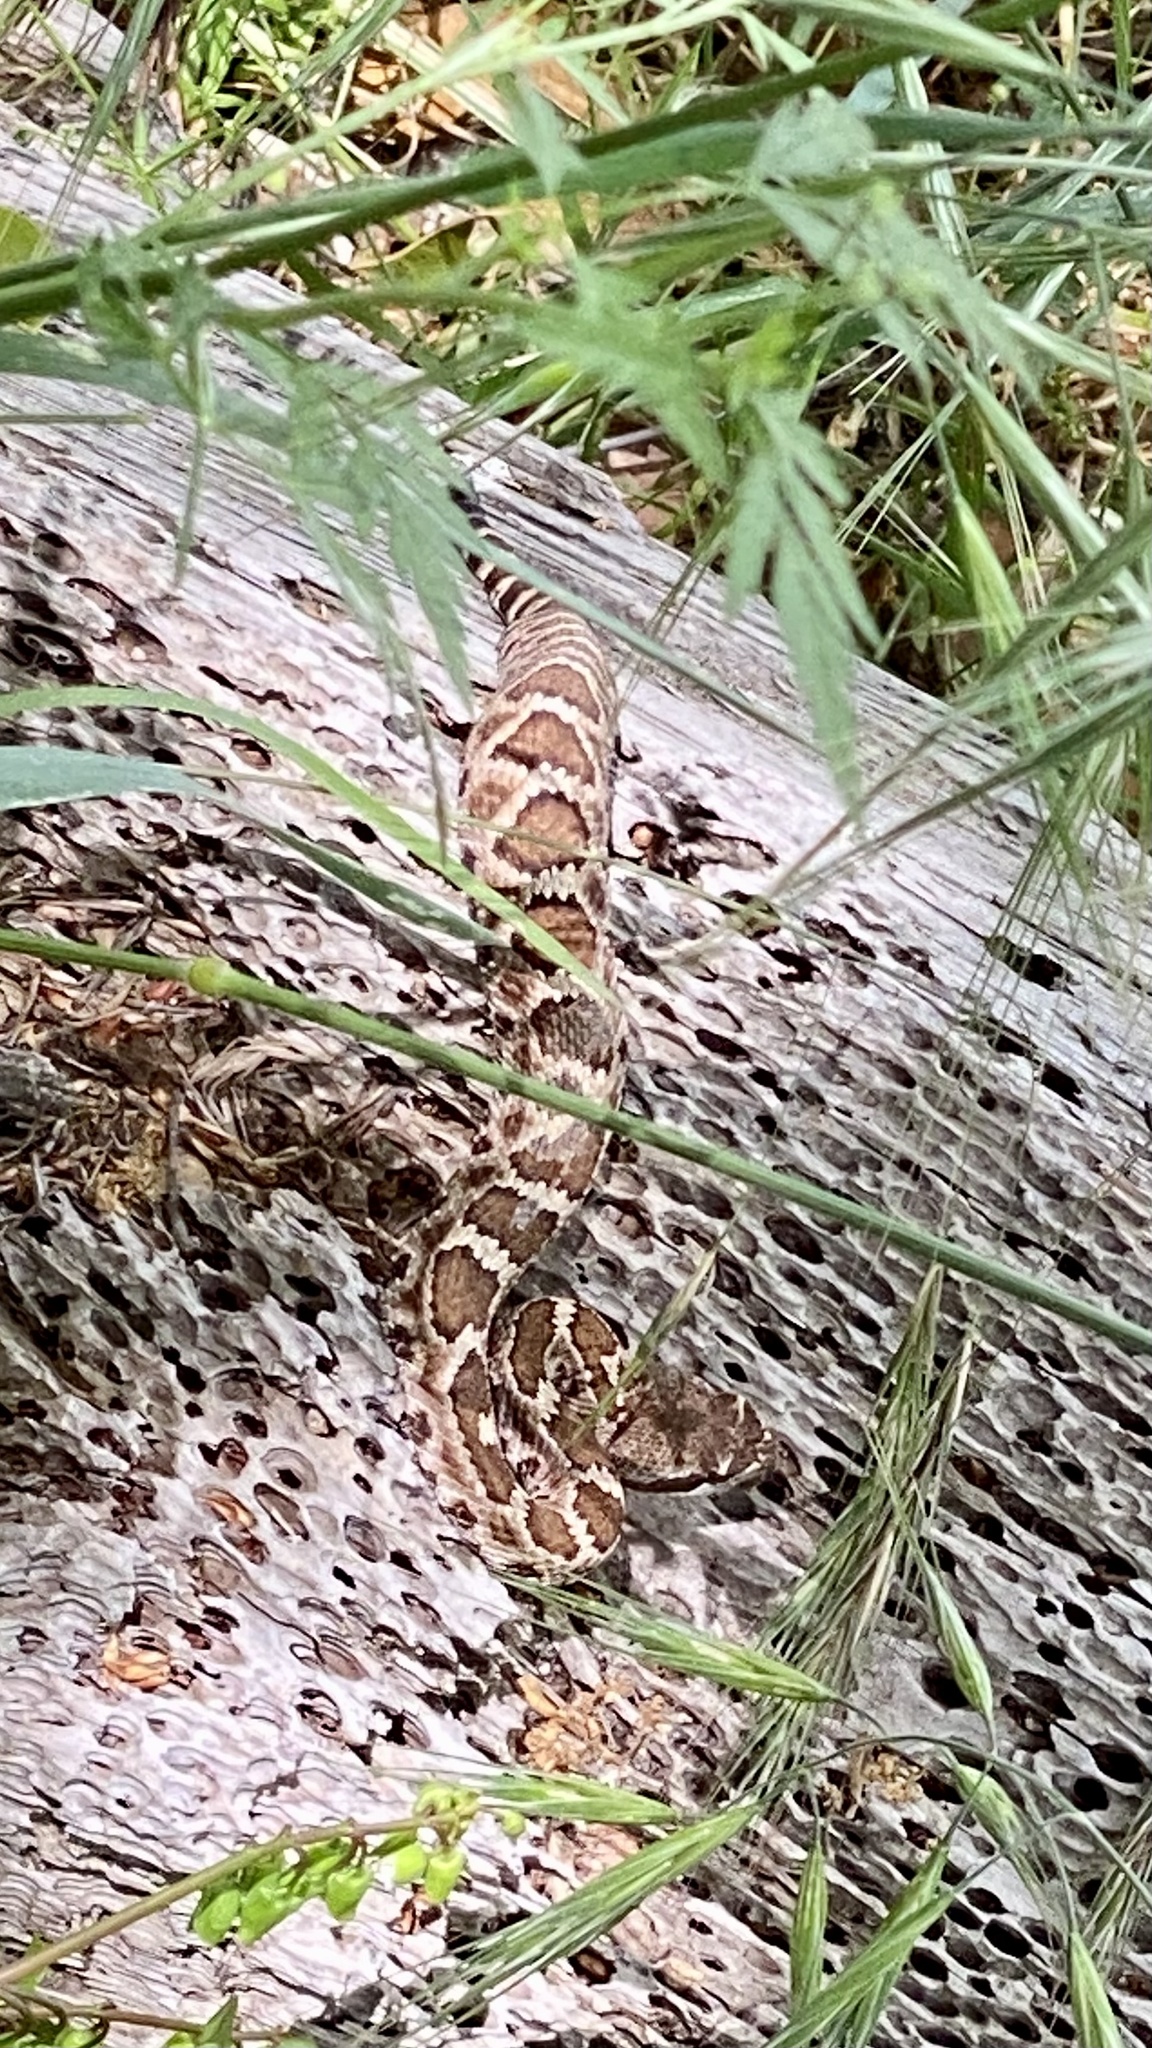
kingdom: Animalia
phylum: Chordata
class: Squamata
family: Viperidae
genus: Crotalus
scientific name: Crotalus oreganus
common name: Abyssus
